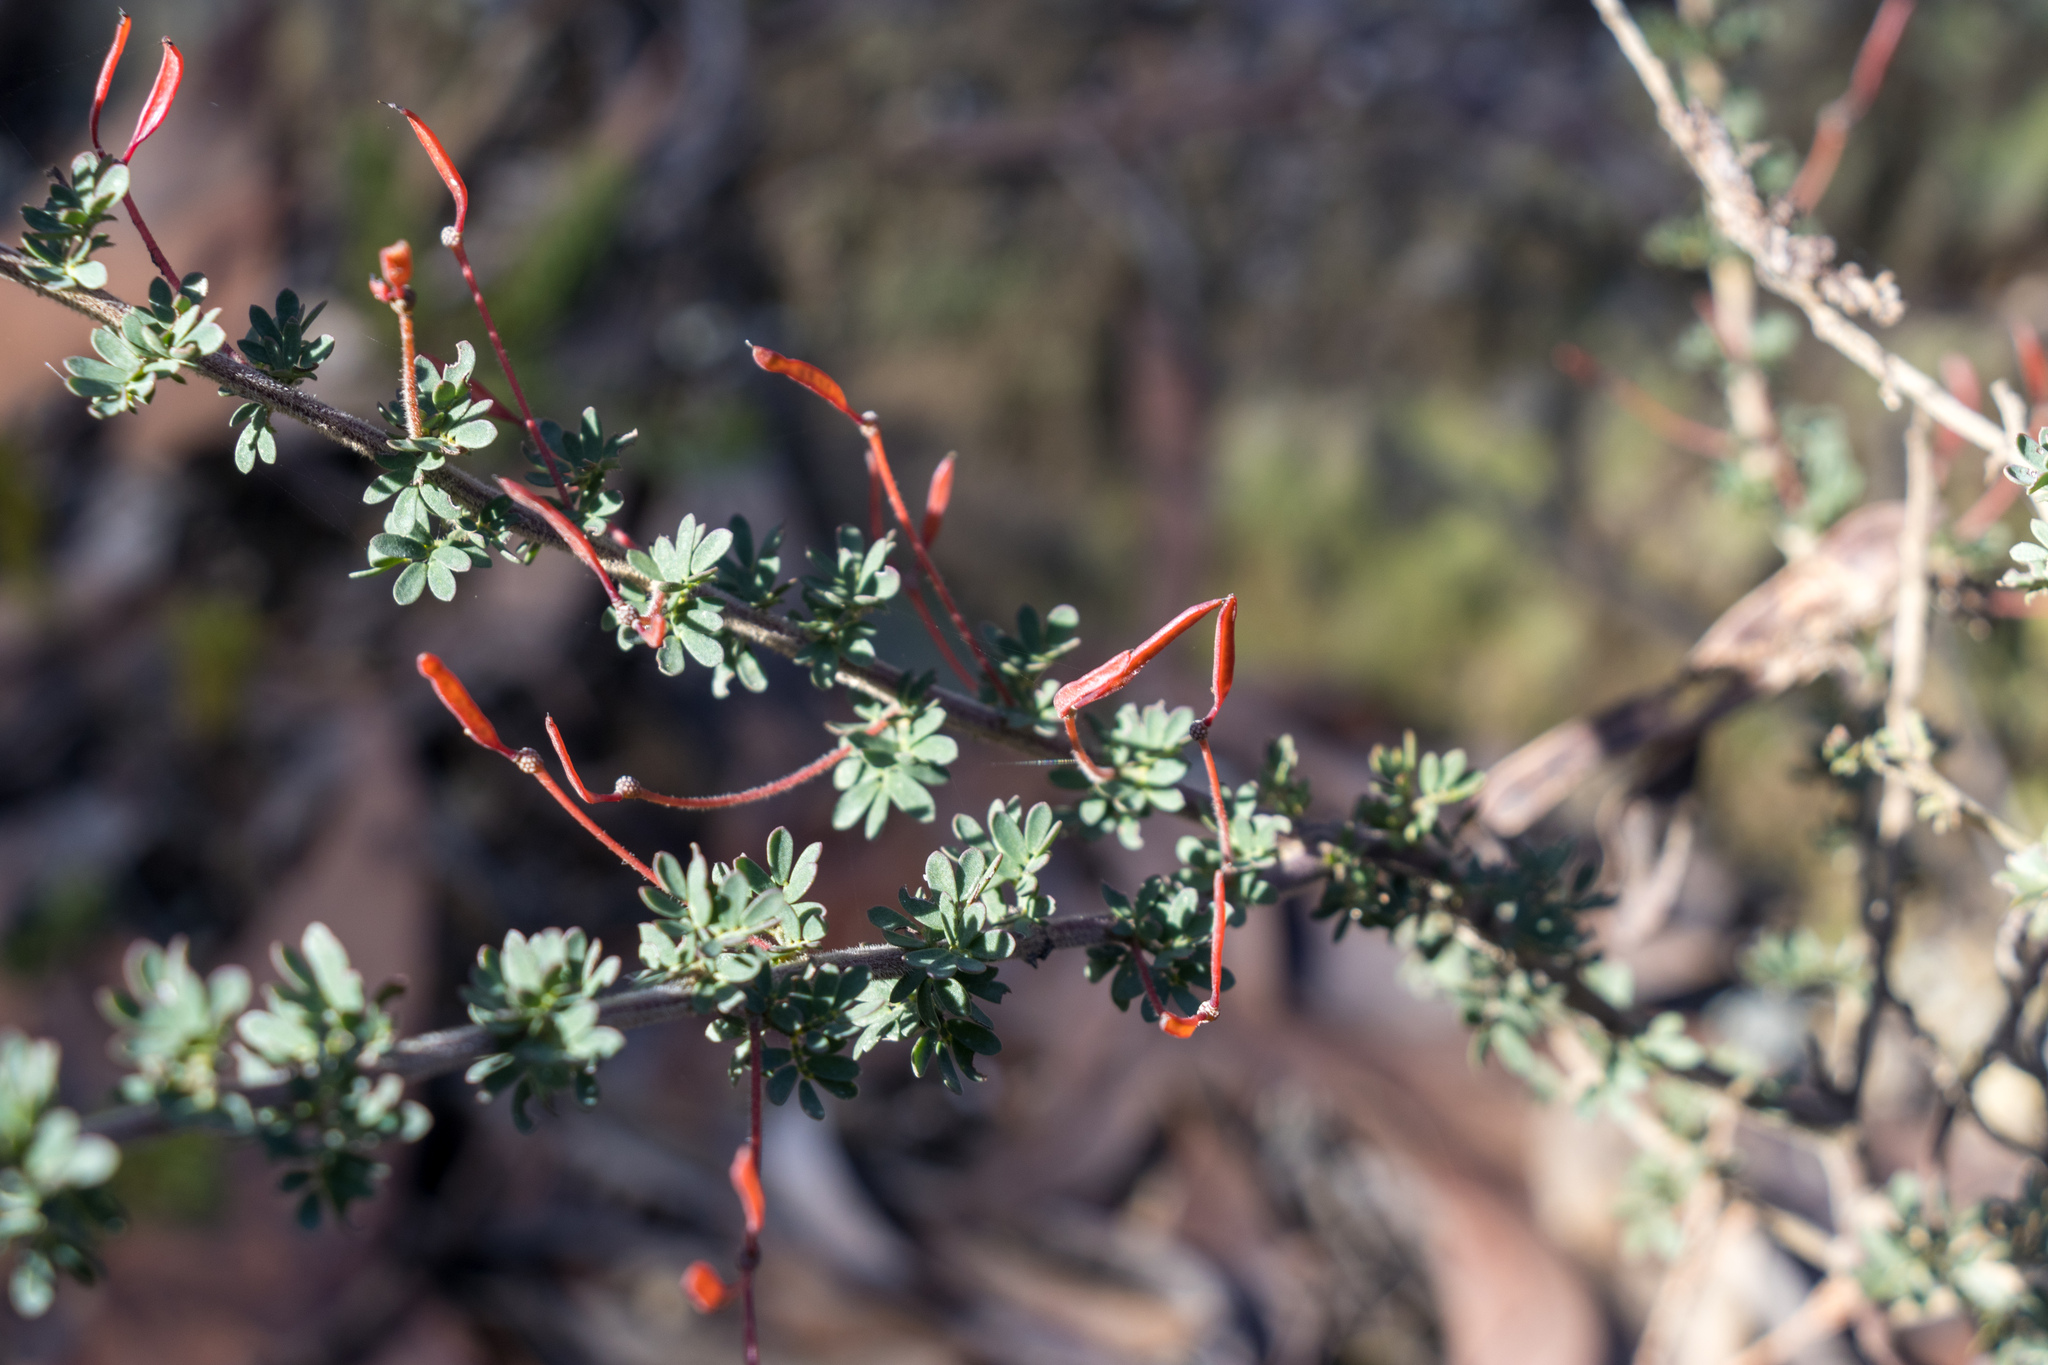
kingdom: Plantae
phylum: Tracheophyta
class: Magnoliopsida
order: Fabales
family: Fabaceae
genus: Acacia
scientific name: Acacia mitchellii
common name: Mitchell's wattle
